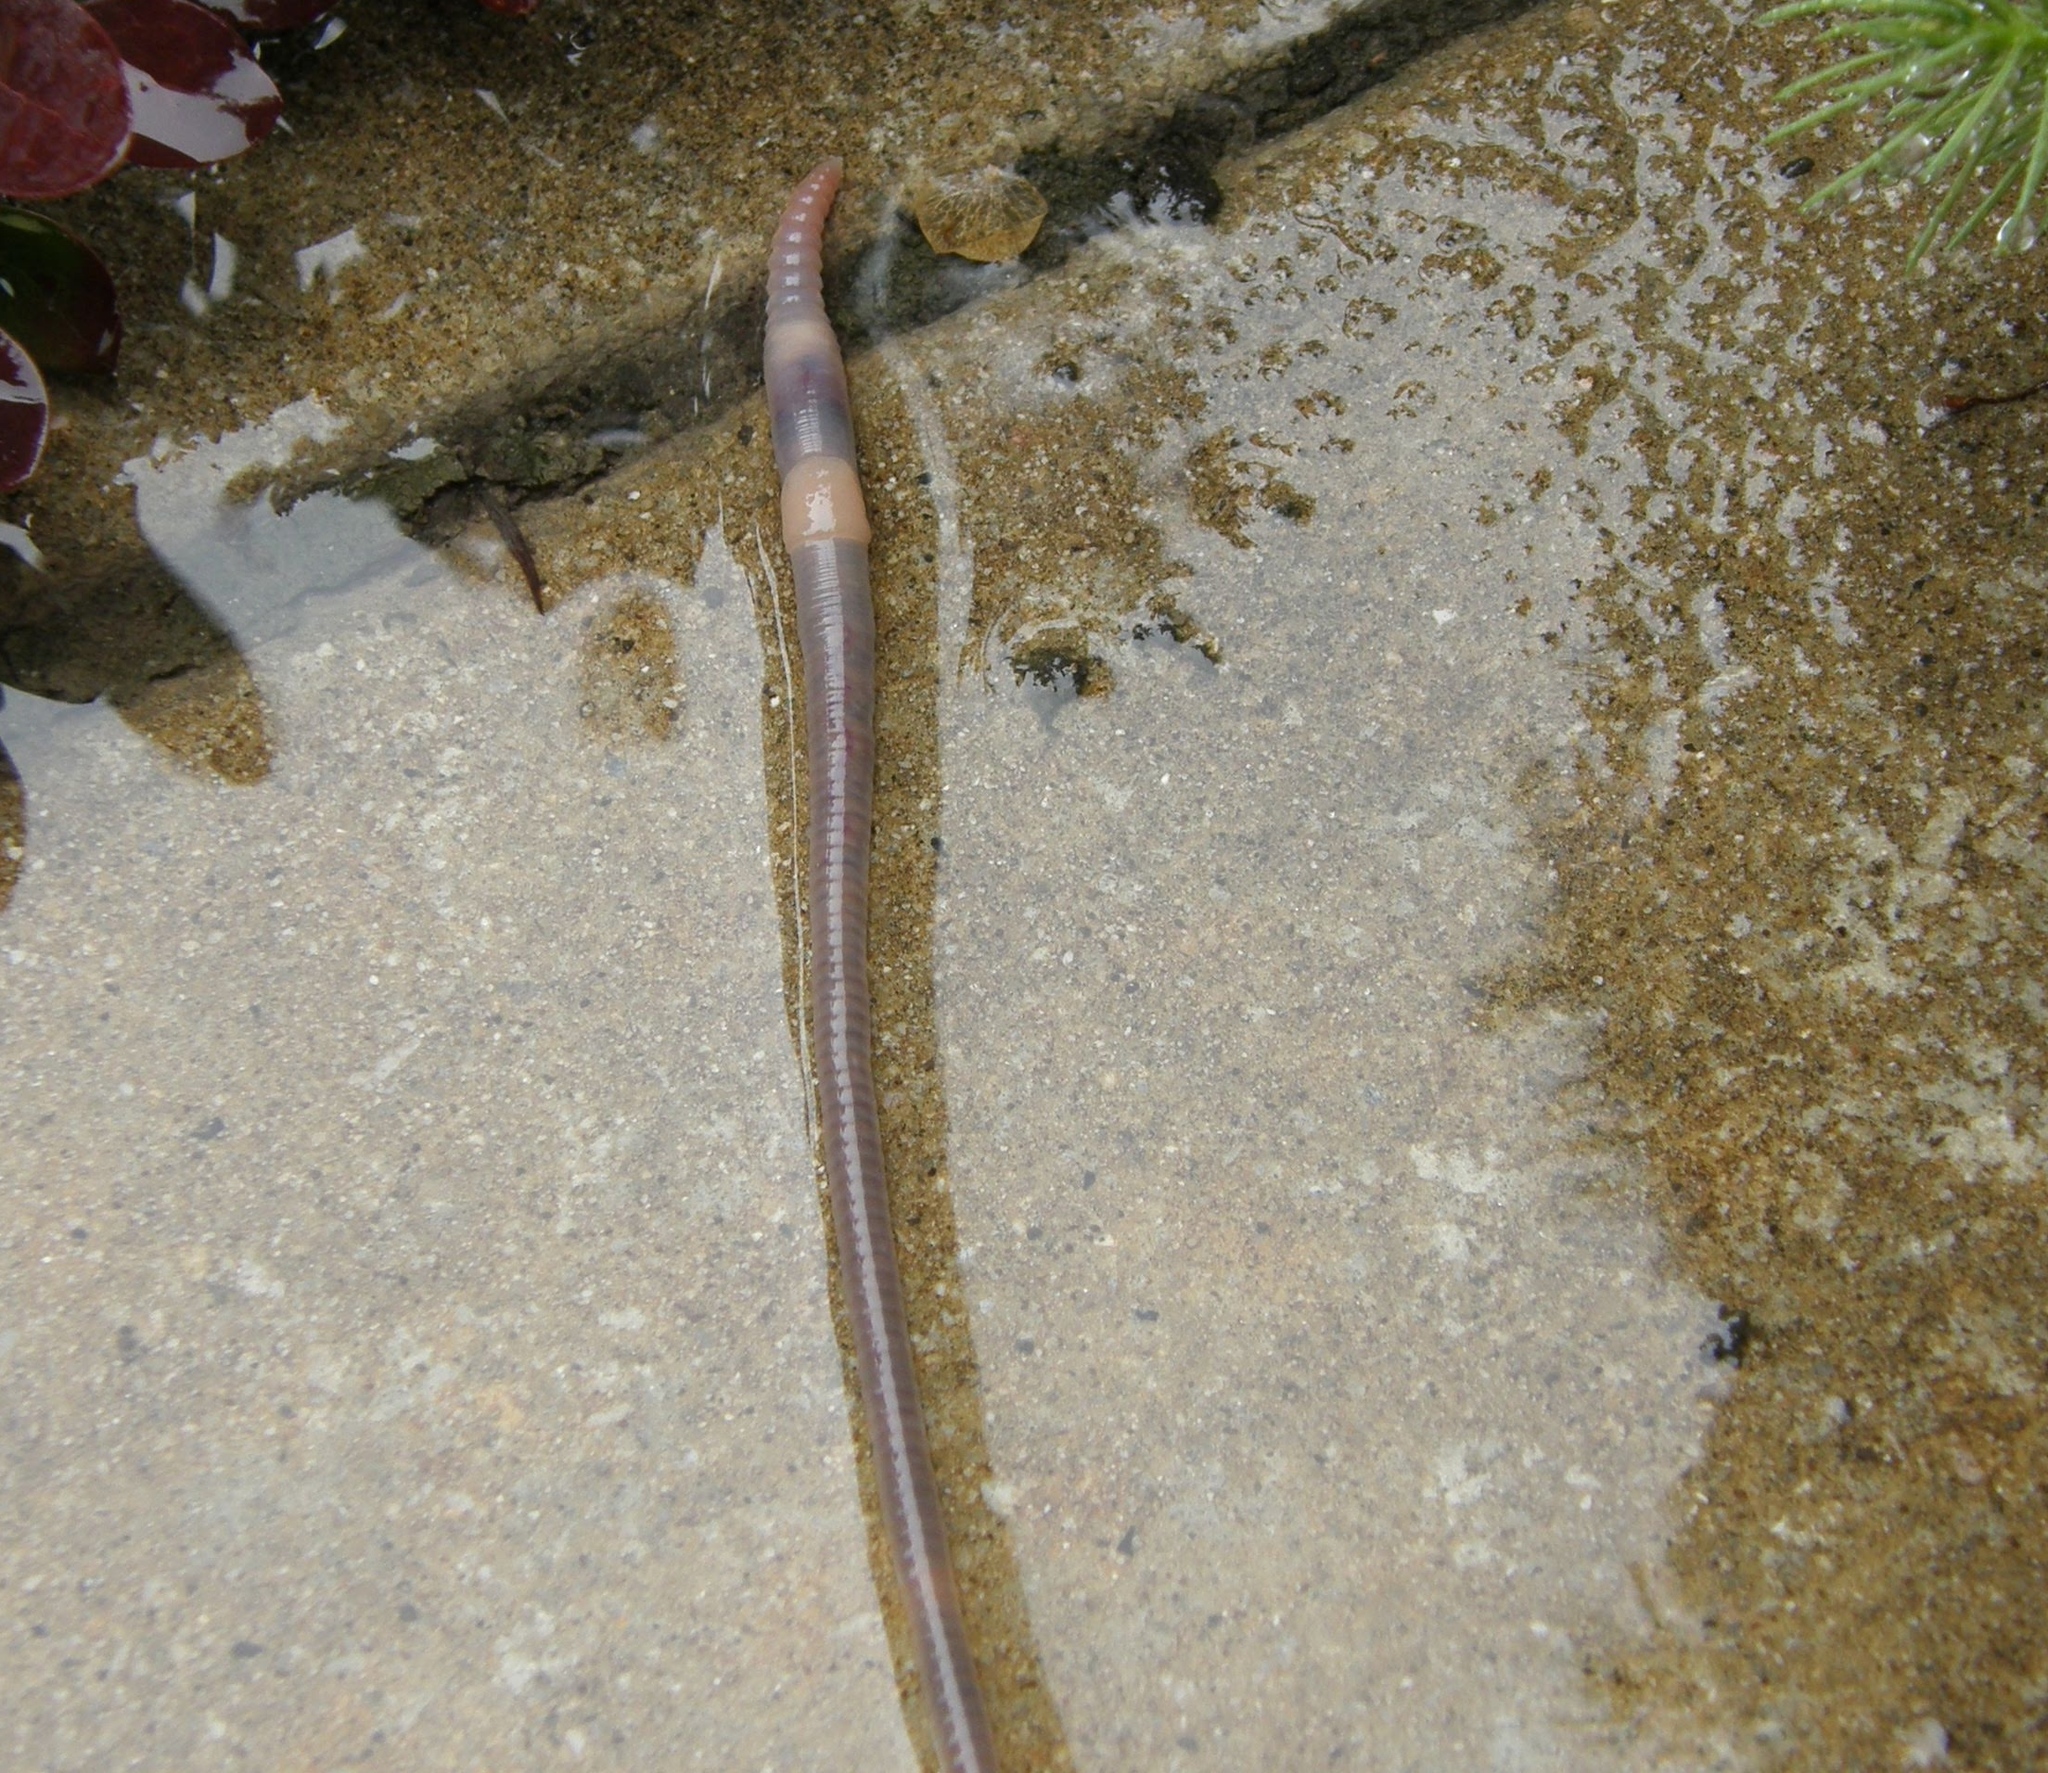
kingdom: Animalia
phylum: Annelida
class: Clitellata
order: Crassiclitellata
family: Lumbricidae
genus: Lumbricus
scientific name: Lumbricus terrestris
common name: Common earthworm
